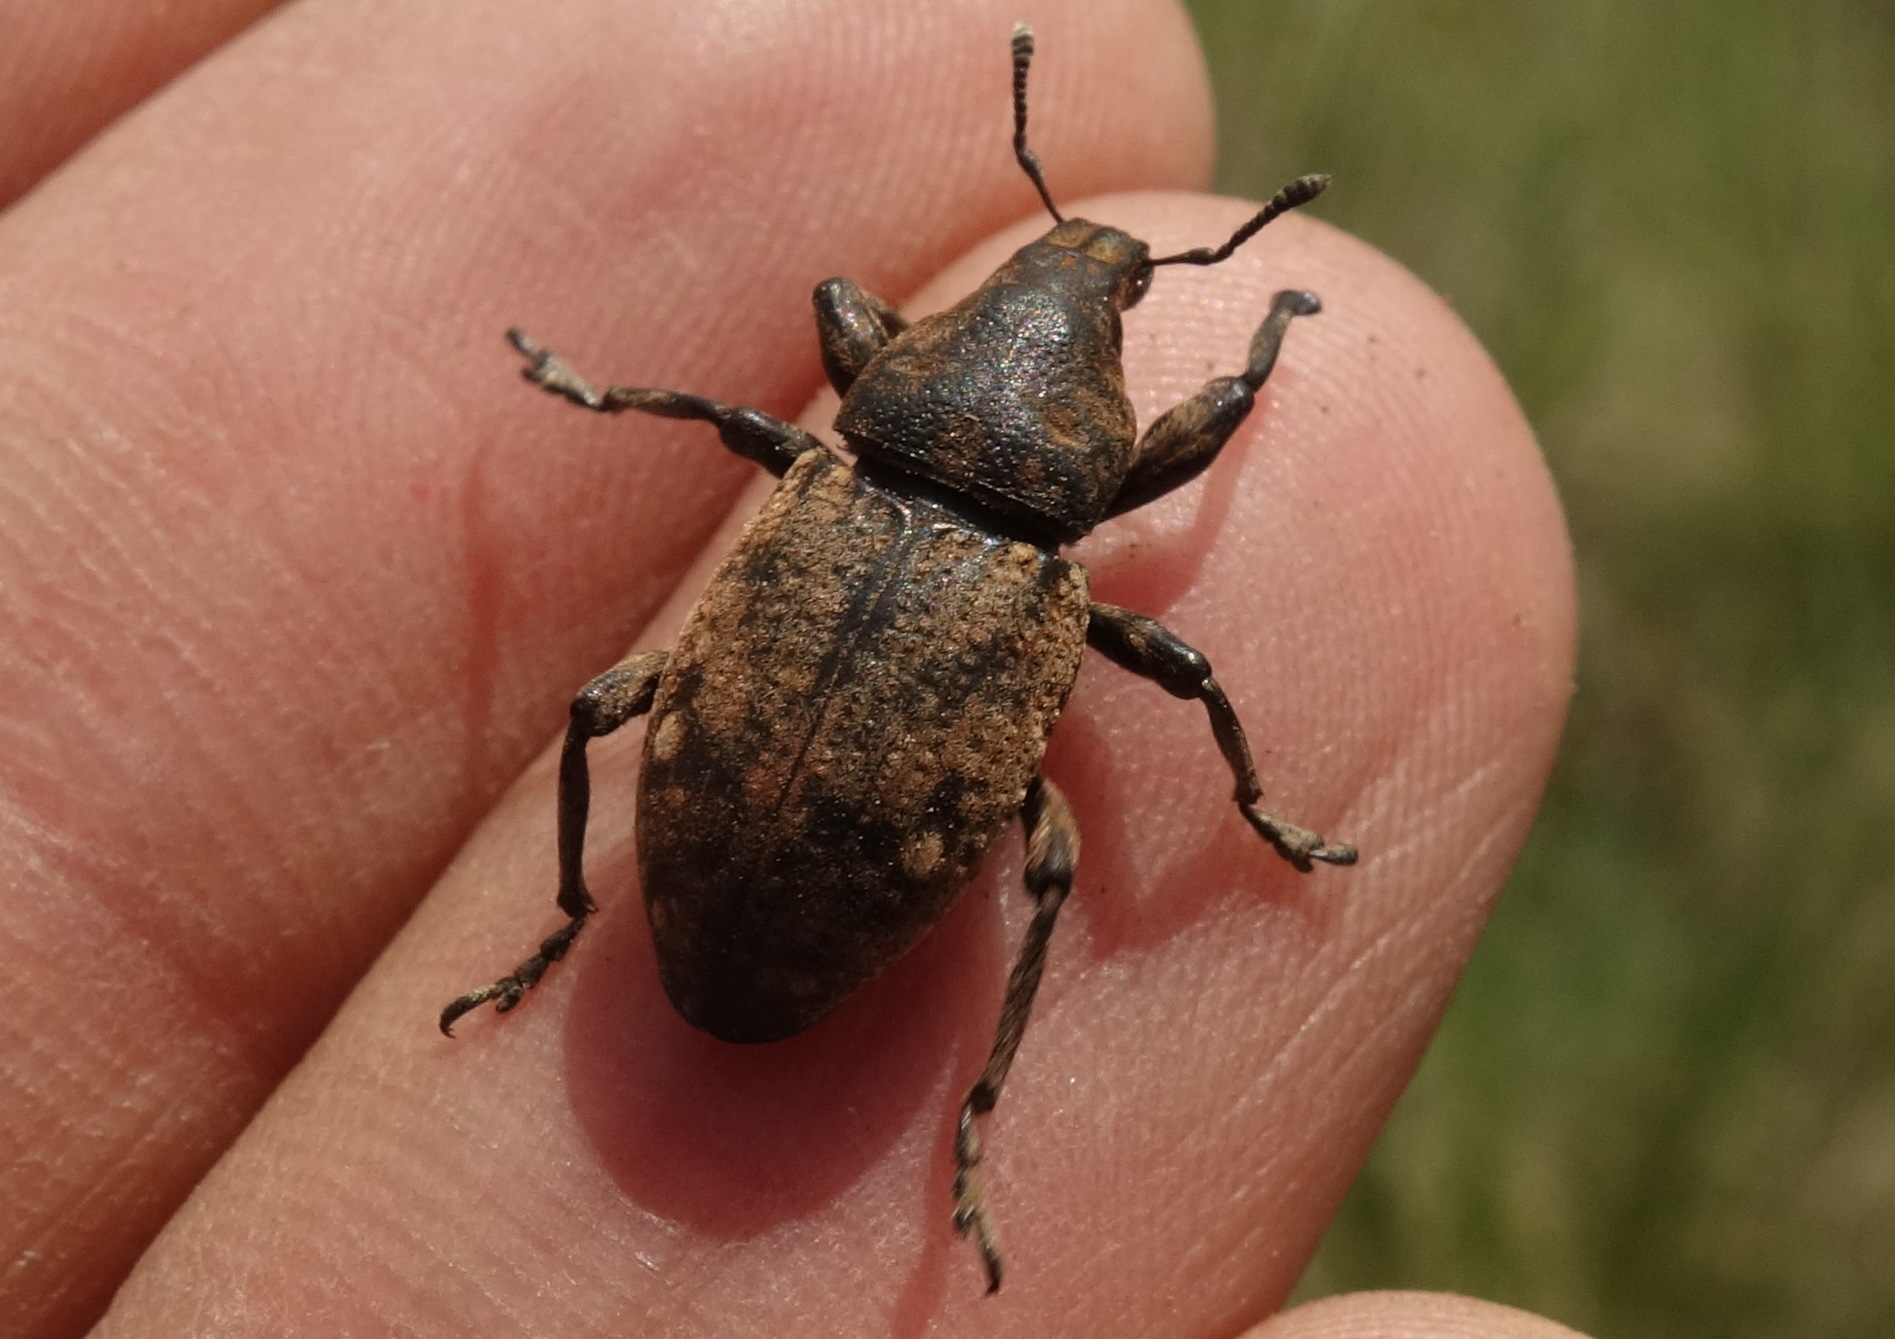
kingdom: Animalia
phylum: Arthropoda
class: Insecta
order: Coleoptera
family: Curculionidae
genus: Leucophyes
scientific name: Leucophyes pedestris
